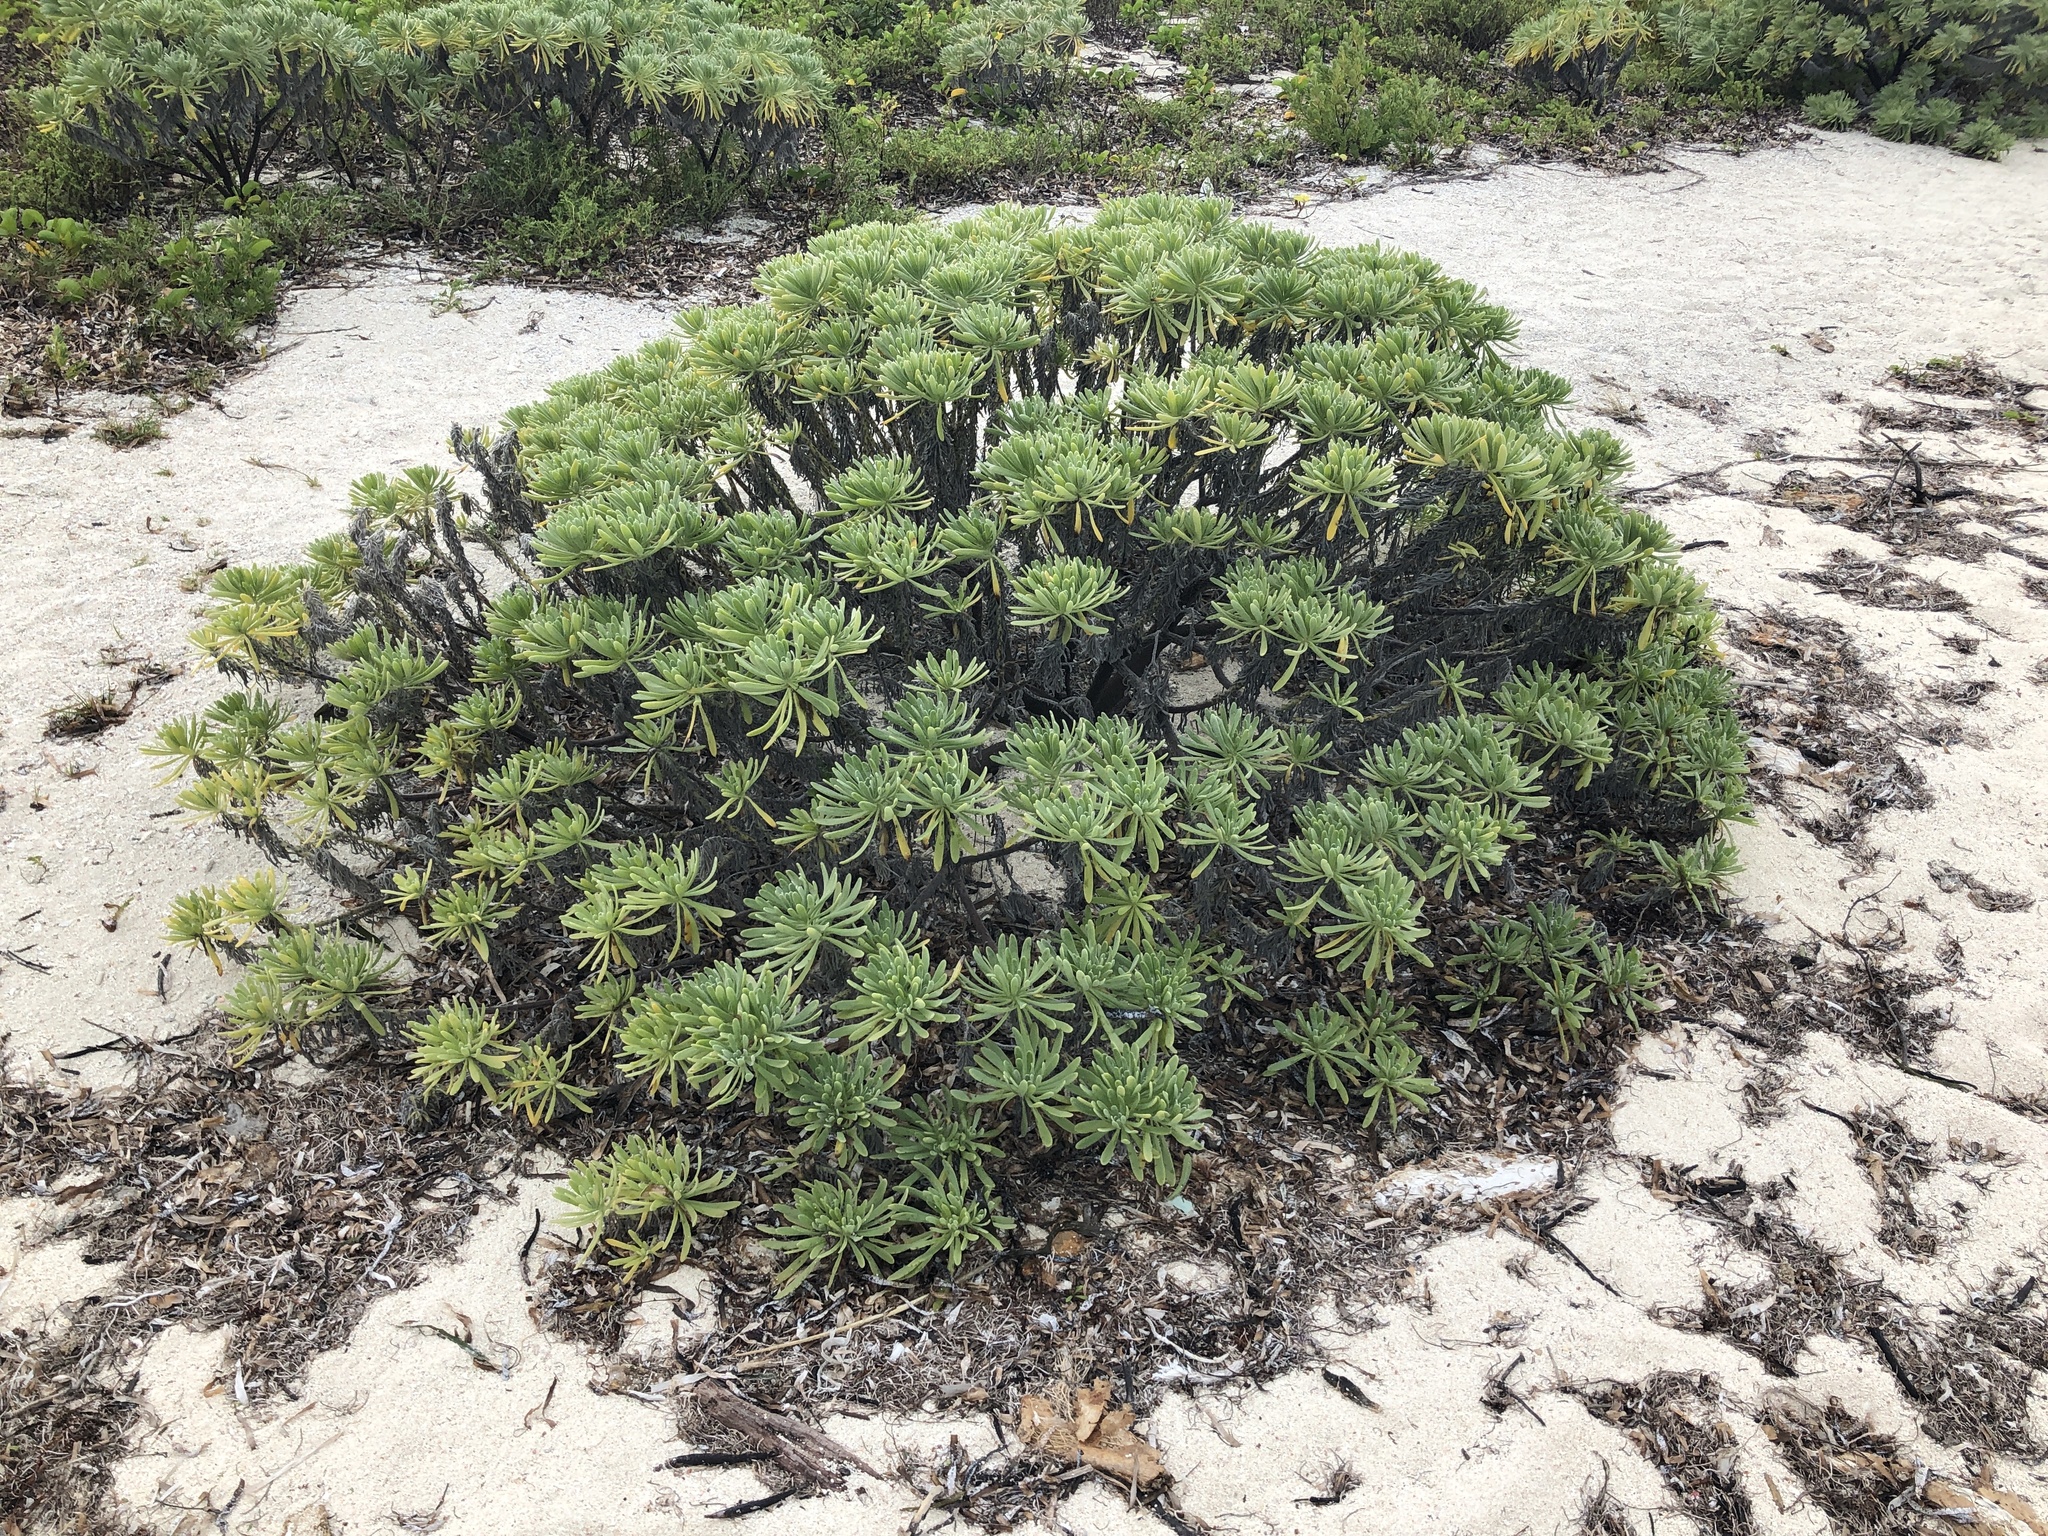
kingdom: Plantae
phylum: Tracheophyta
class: Magnoliopsida
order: Boraginales
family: Heliotropiaceae
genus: Tournefortia
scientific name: Tournefortia gnaphalodes
